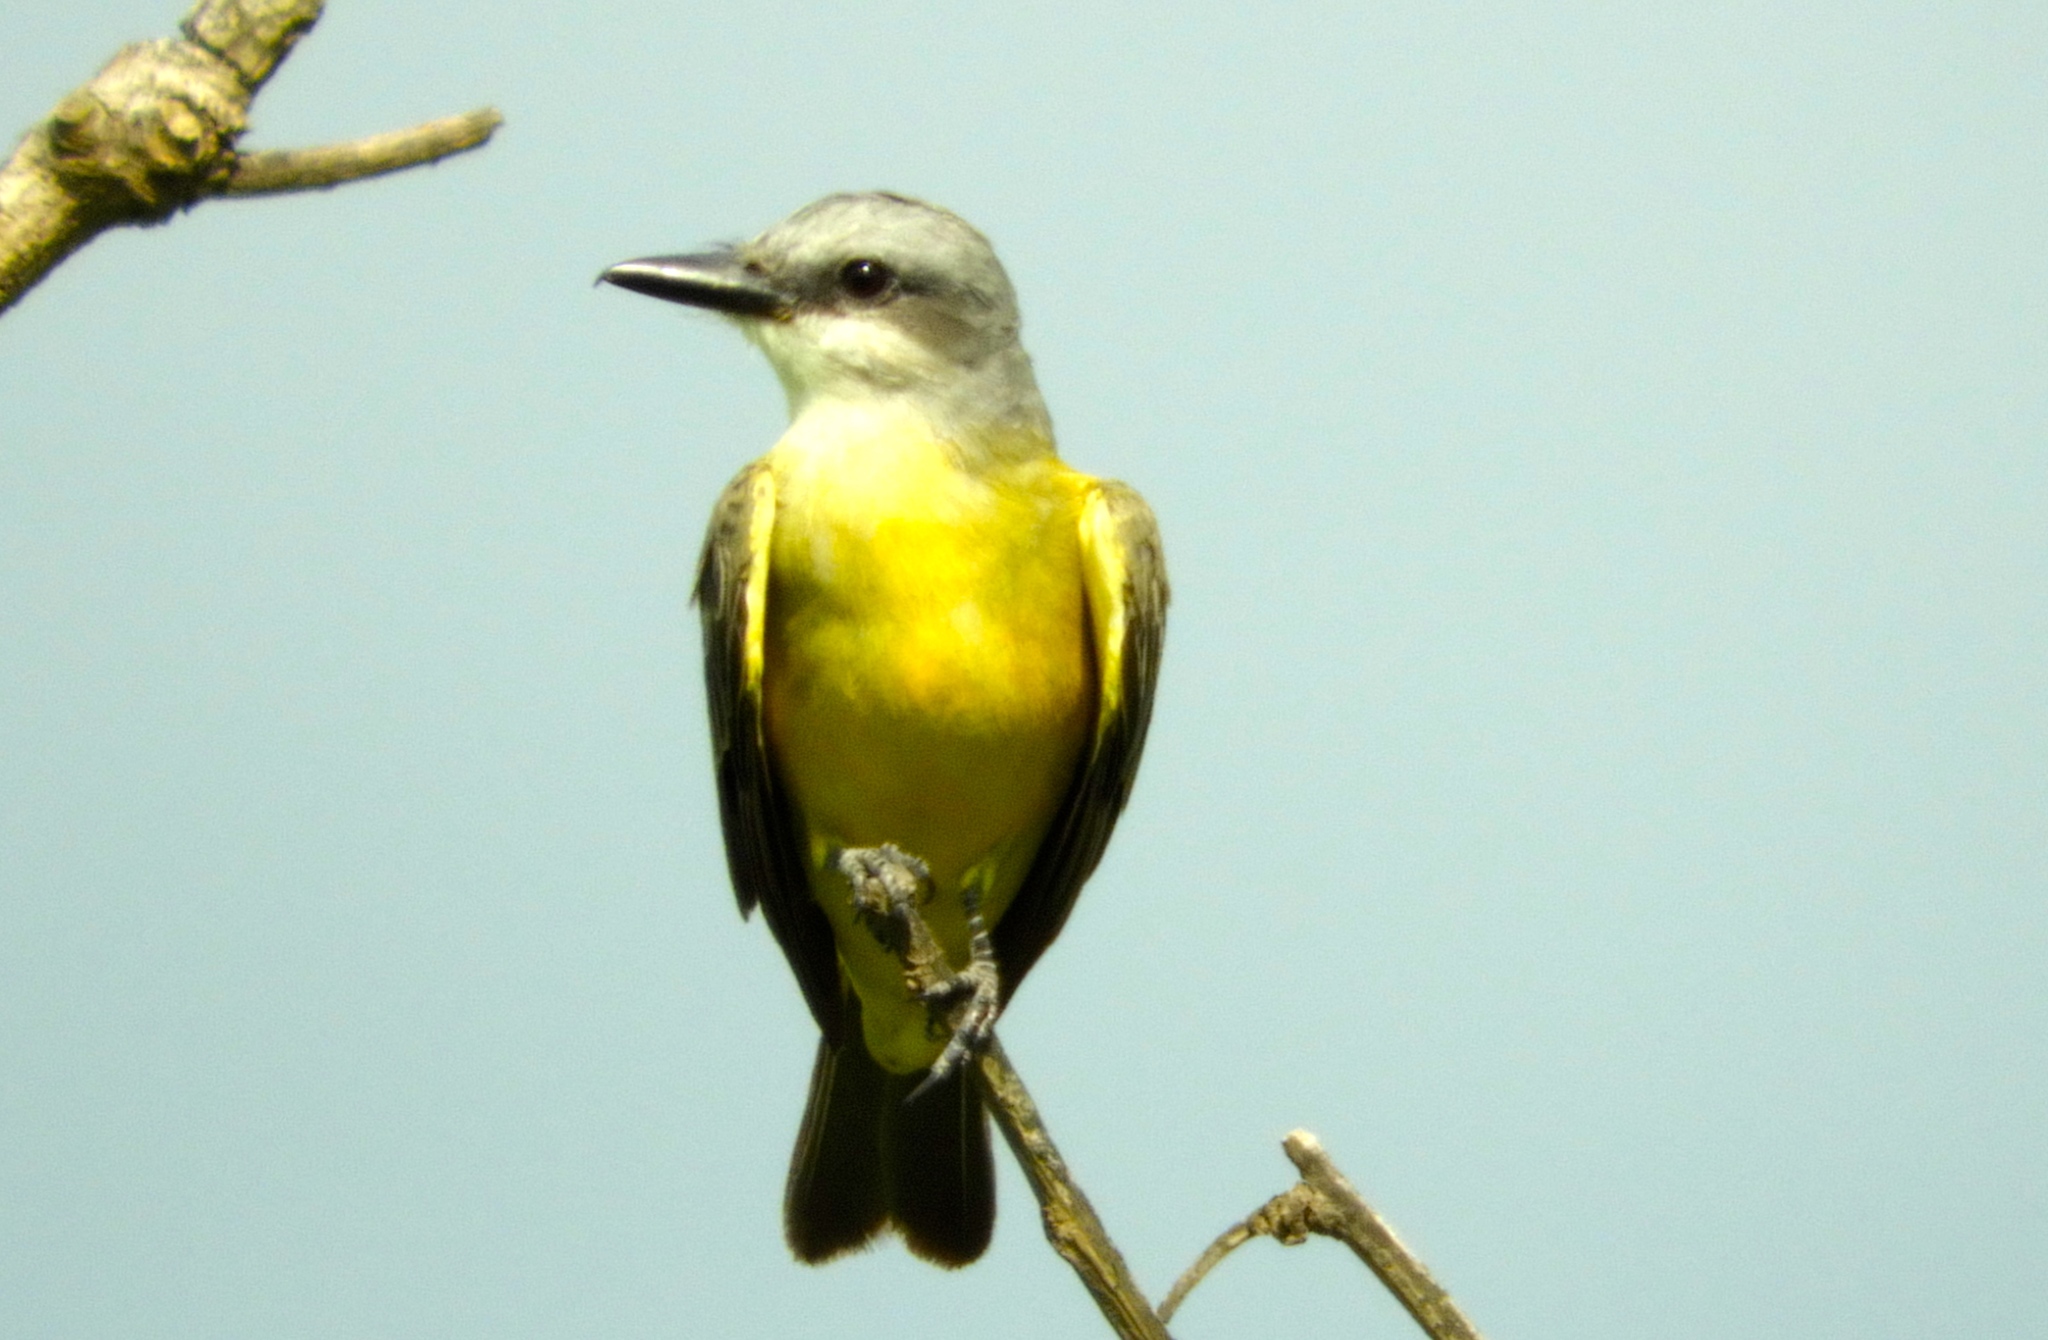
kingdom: Animalia
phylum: Chordata
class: Aves
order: Passeriformes
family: Tyrannidae
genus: Tyrannus
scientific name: Tyrannus melancholicus
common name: Tropical kingbird
